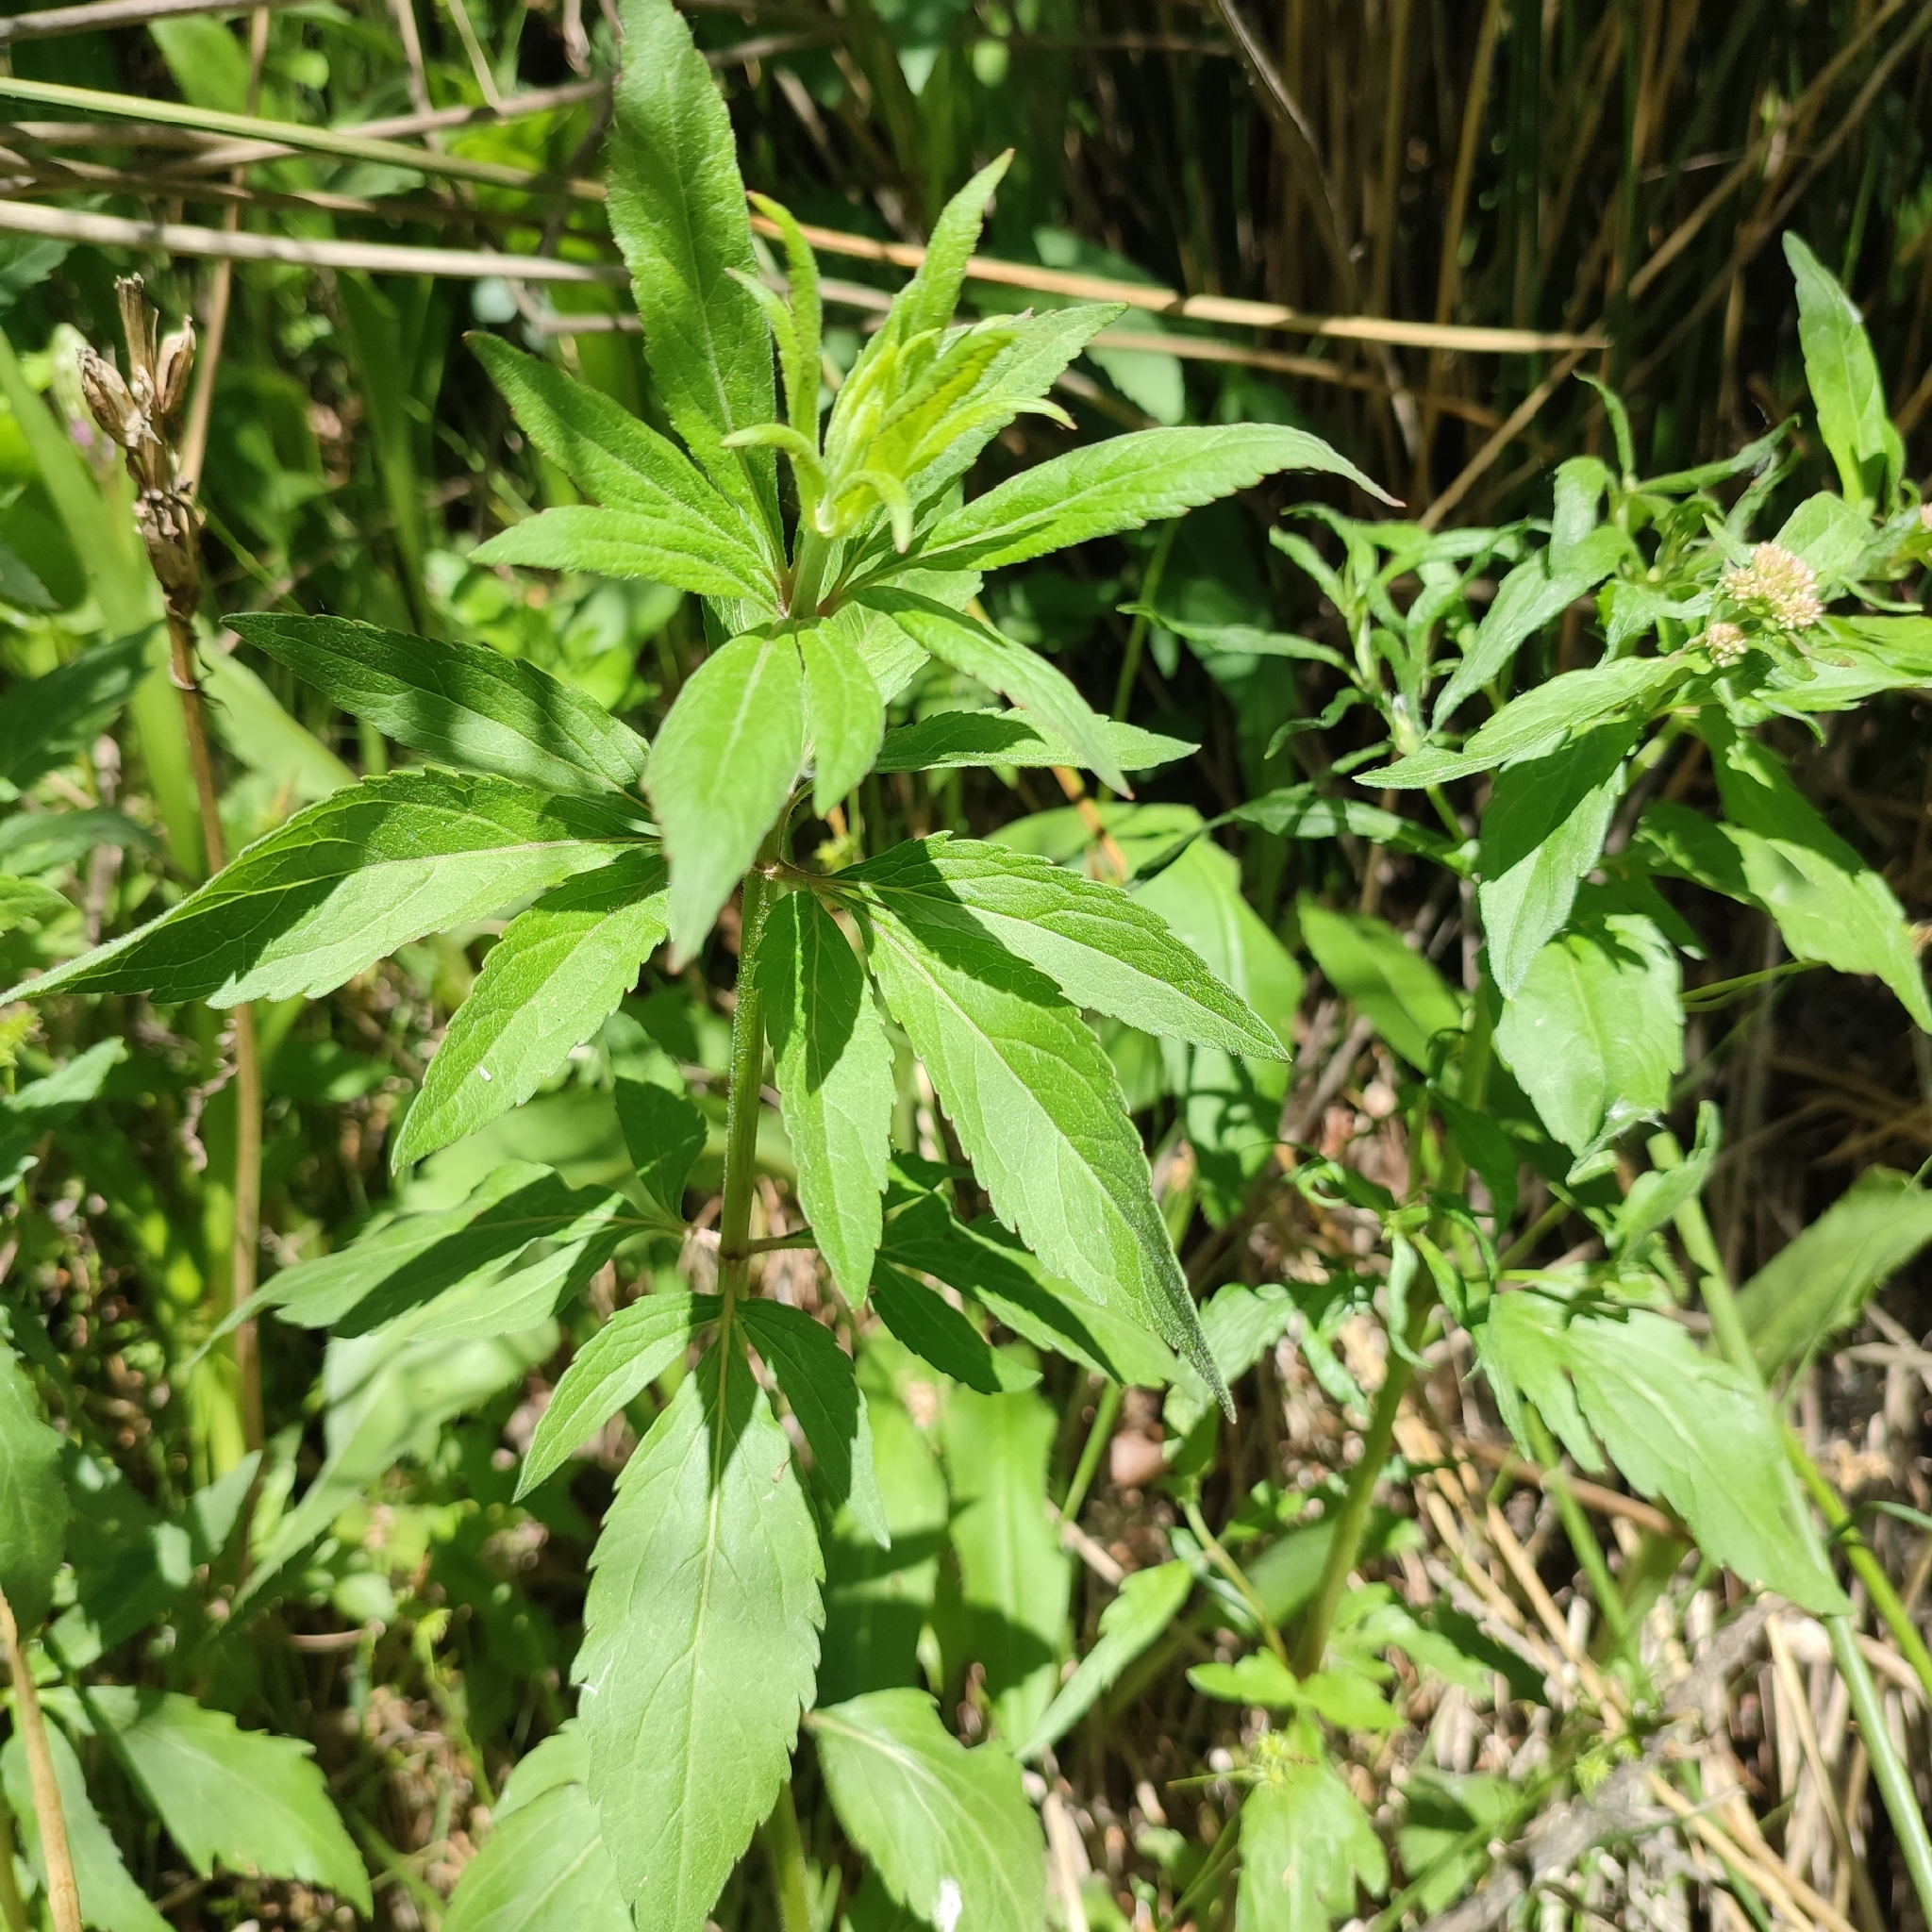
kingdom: Plantae
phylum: Tracheophyta
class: Magnoliopsida
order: Asterales
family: Asteraceae
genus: Eupatorium
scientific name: Eupatorium cannabinum
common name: Hemp-agrimony
